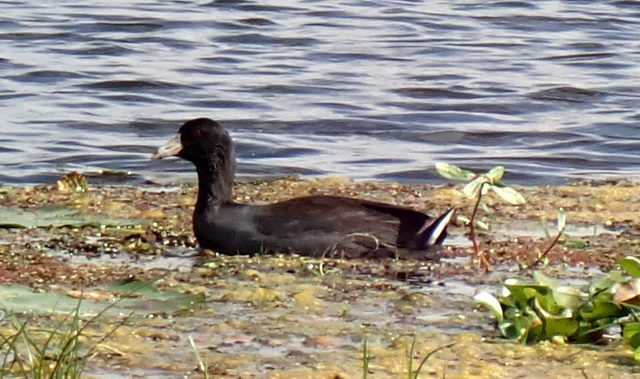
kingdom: Animalia
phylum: Chordata
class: Aves
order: Gruiformes
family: Rallidae
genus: Fulica
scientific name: Fulica americana
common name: American coot
